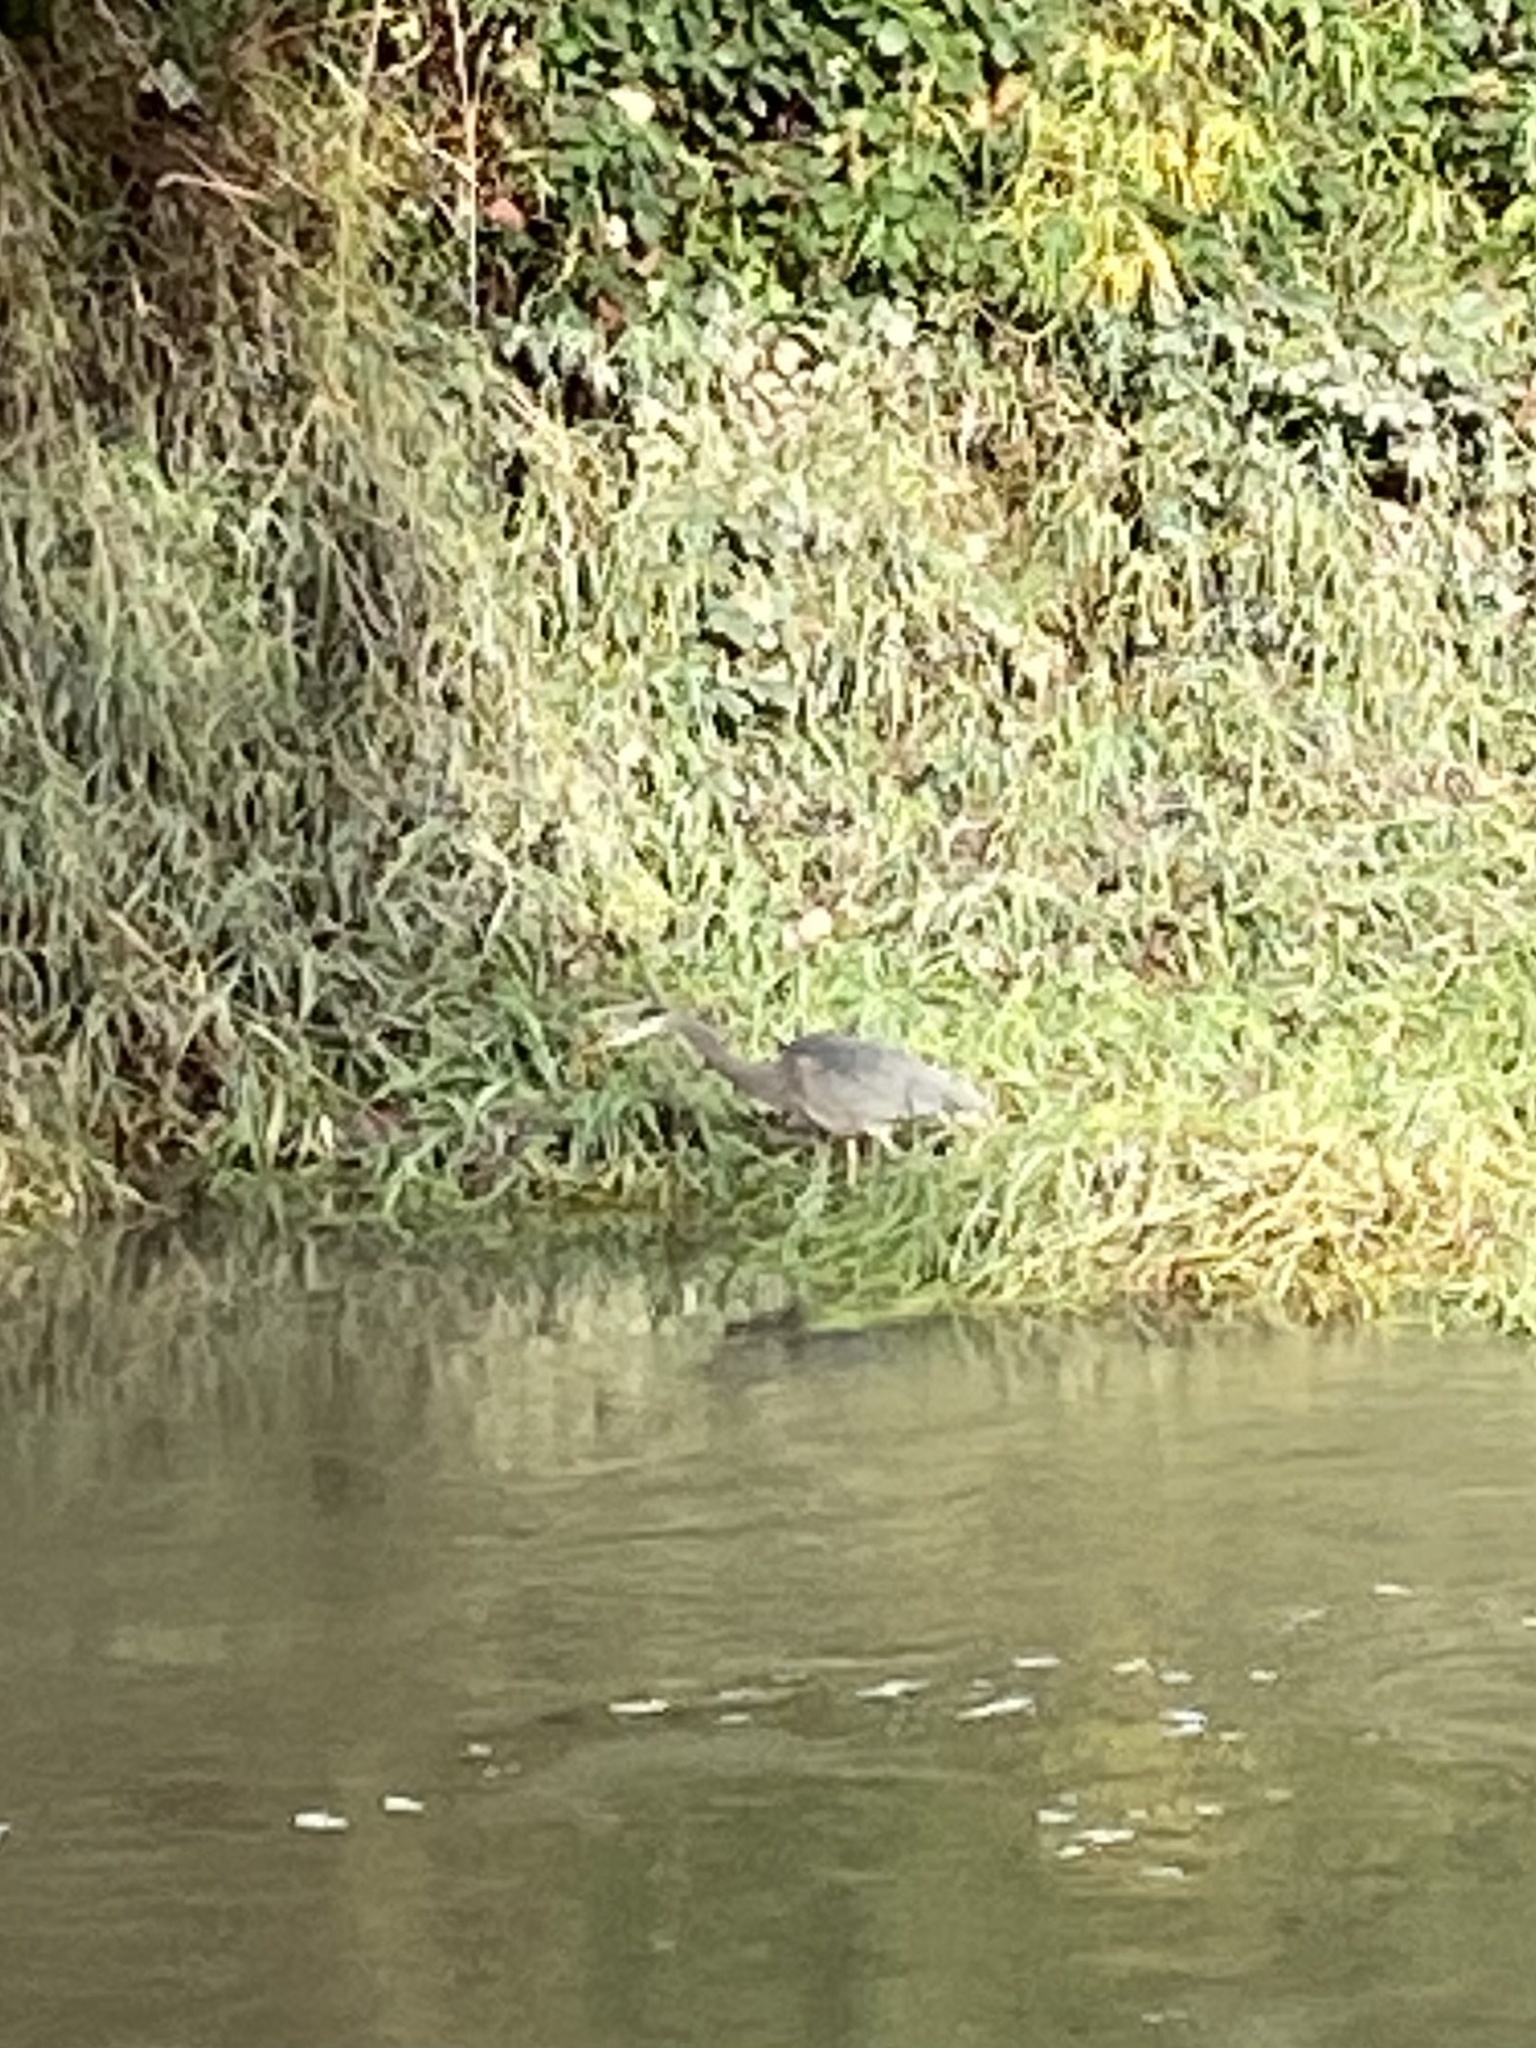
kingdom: Animalia
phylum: Chordata
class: Aves
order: Pelecaniformes
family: Ardeidae
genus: Ardea
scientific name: Ardea herodias
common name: Great blue heron
